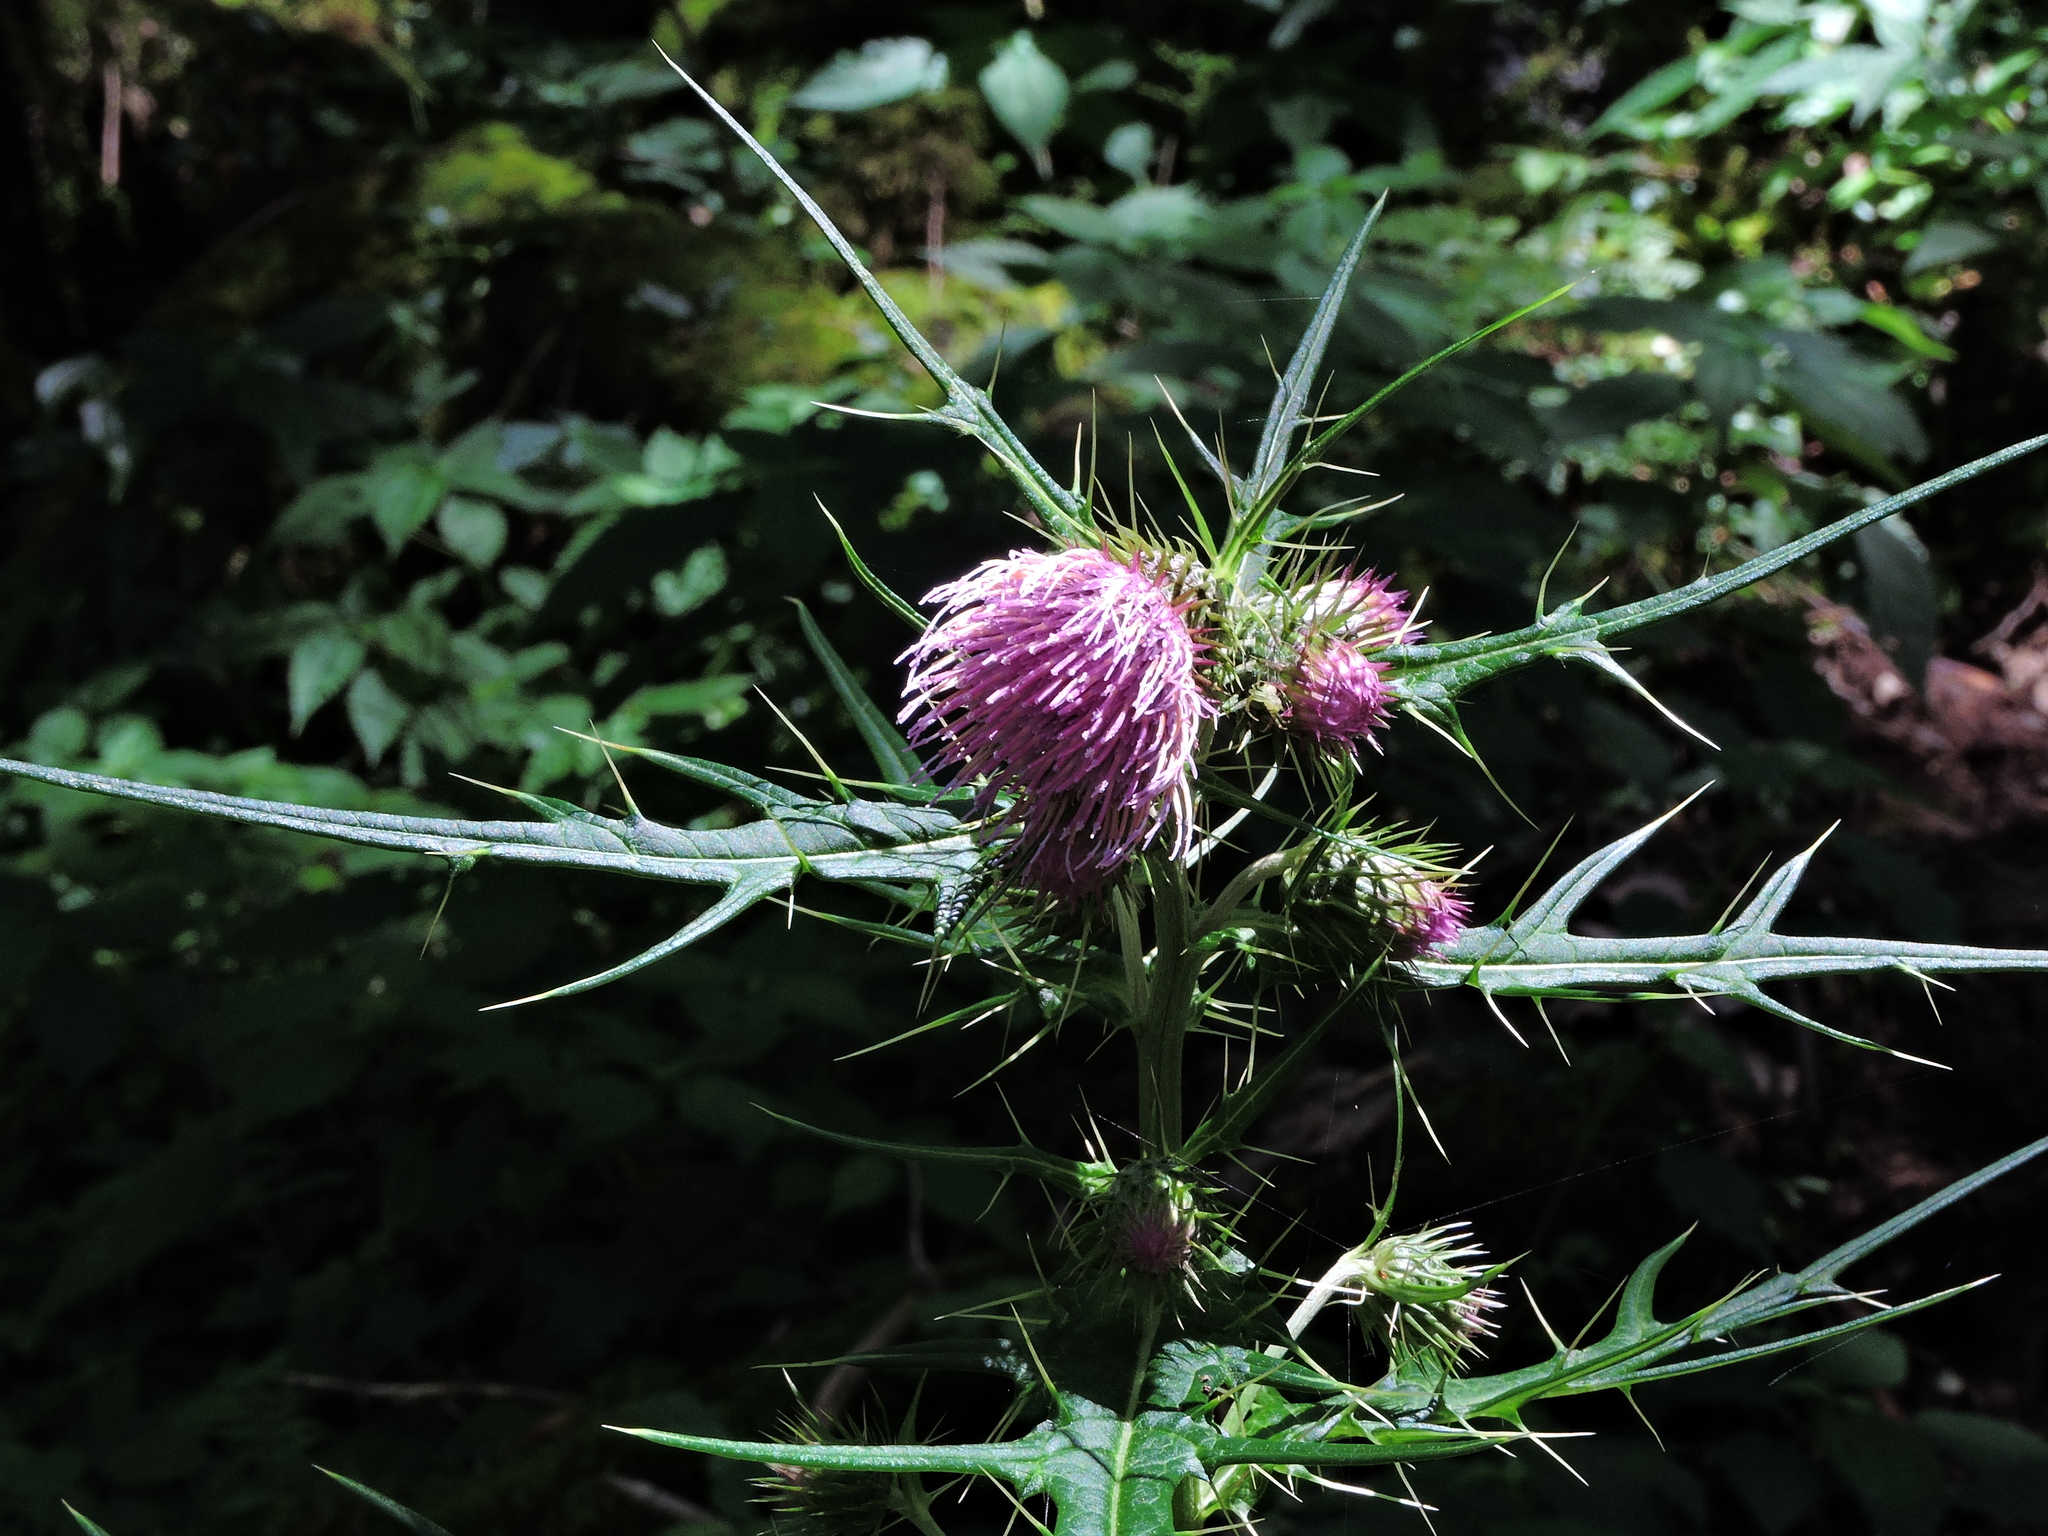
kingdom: Plantae
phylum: Tracheophyta
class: Magnoliopsida
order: Asterales
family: Asteraceae
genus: Cirsium
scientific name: Cirsium tatakaense
